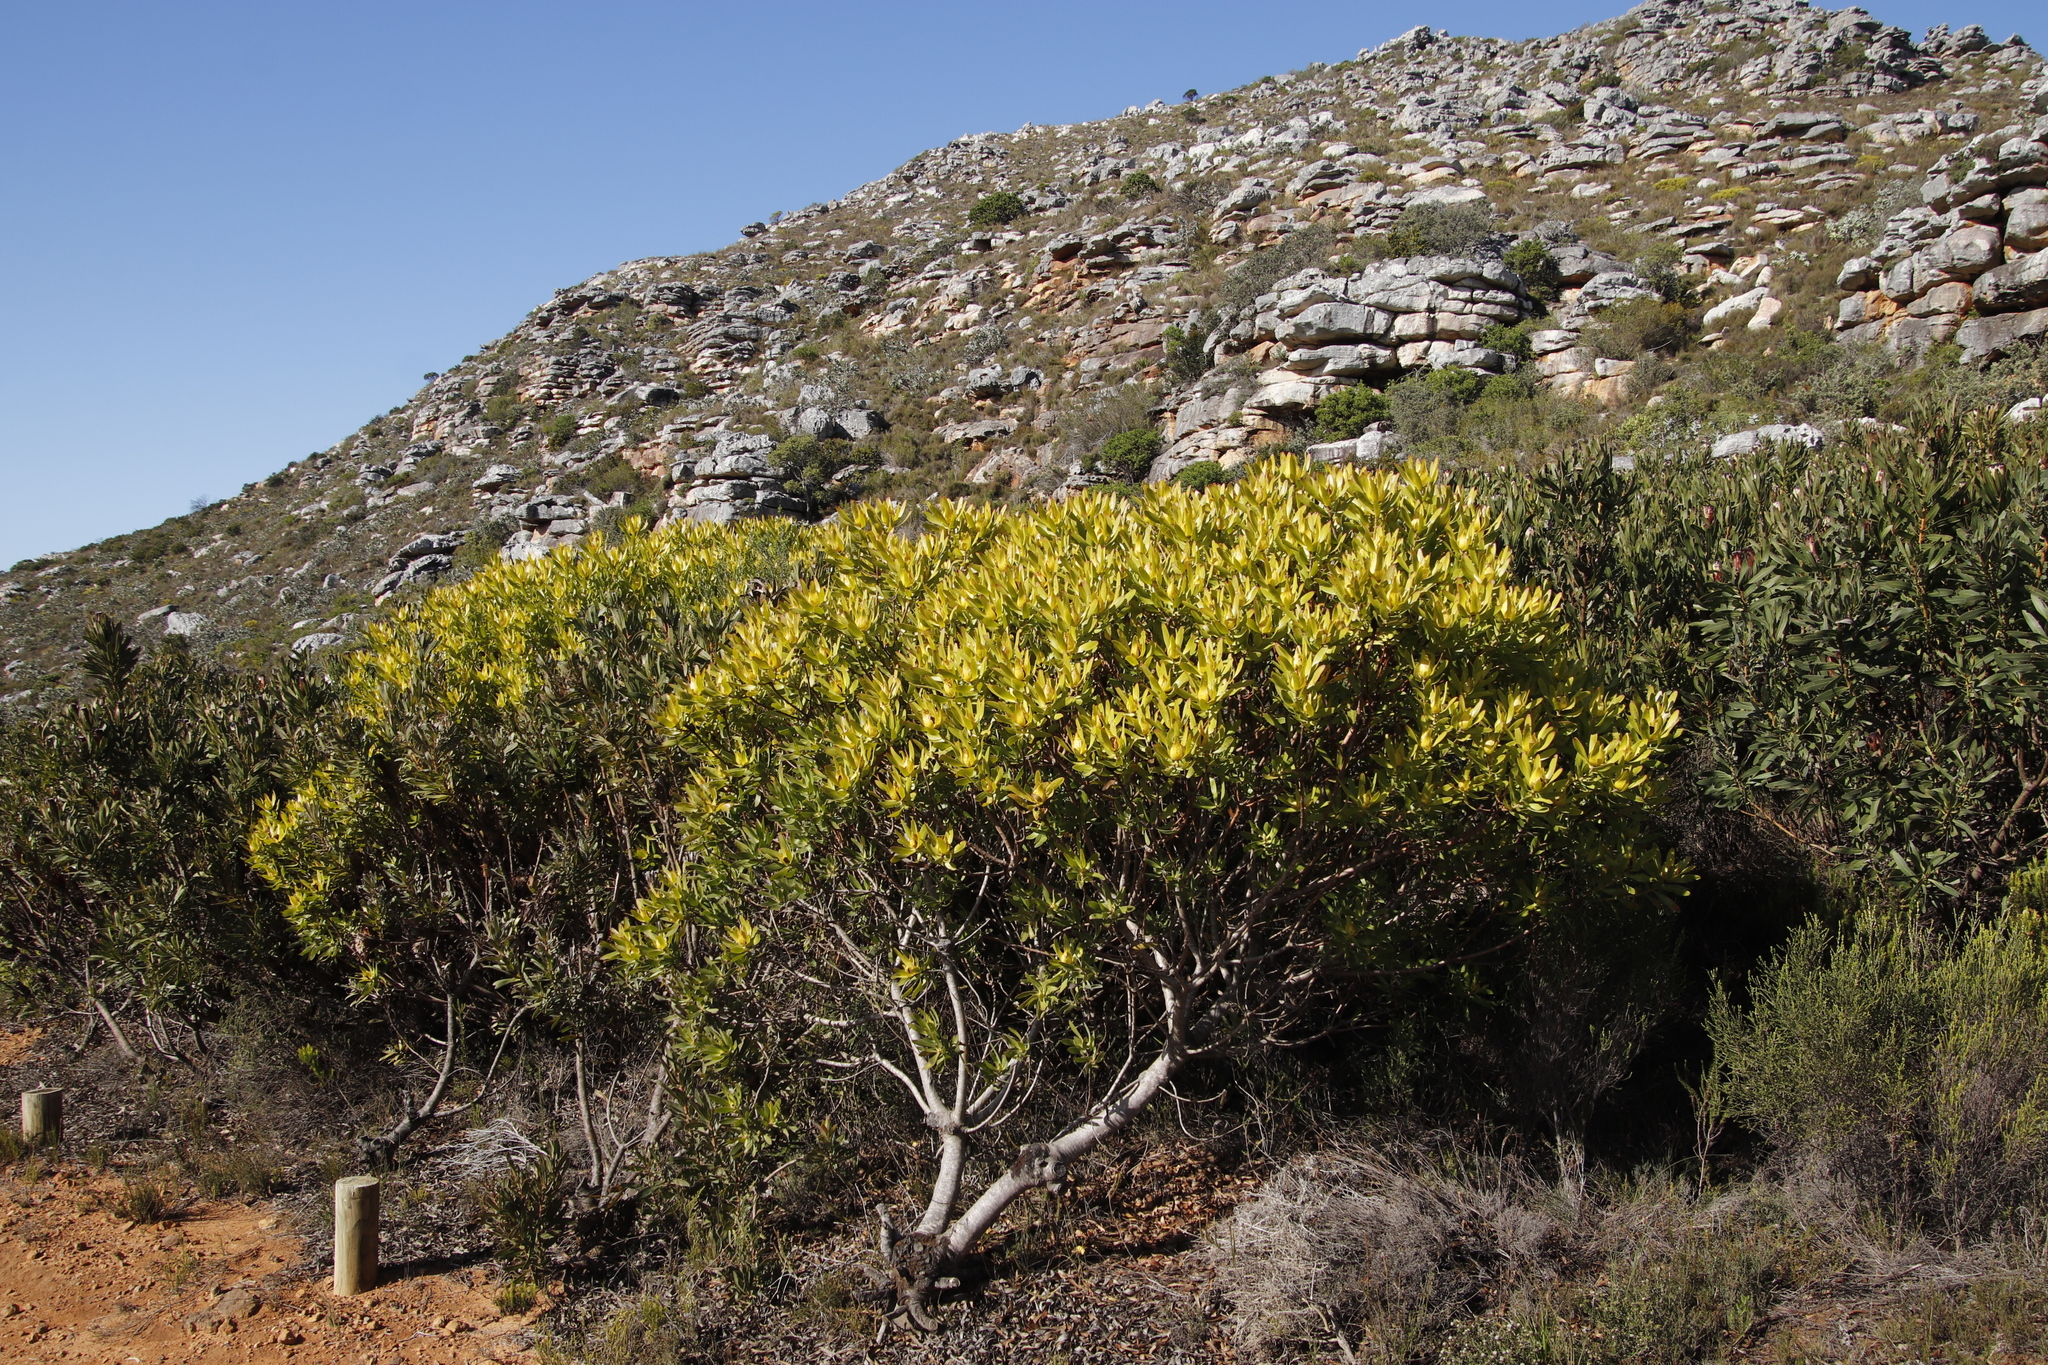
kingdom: Plantae
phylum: Tracheophyta
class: Magnoliopsida
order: Proteales
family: Proteaceae
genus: Leucadendron
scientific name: Leucadendron laureolum
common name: Golden sunshinebush
